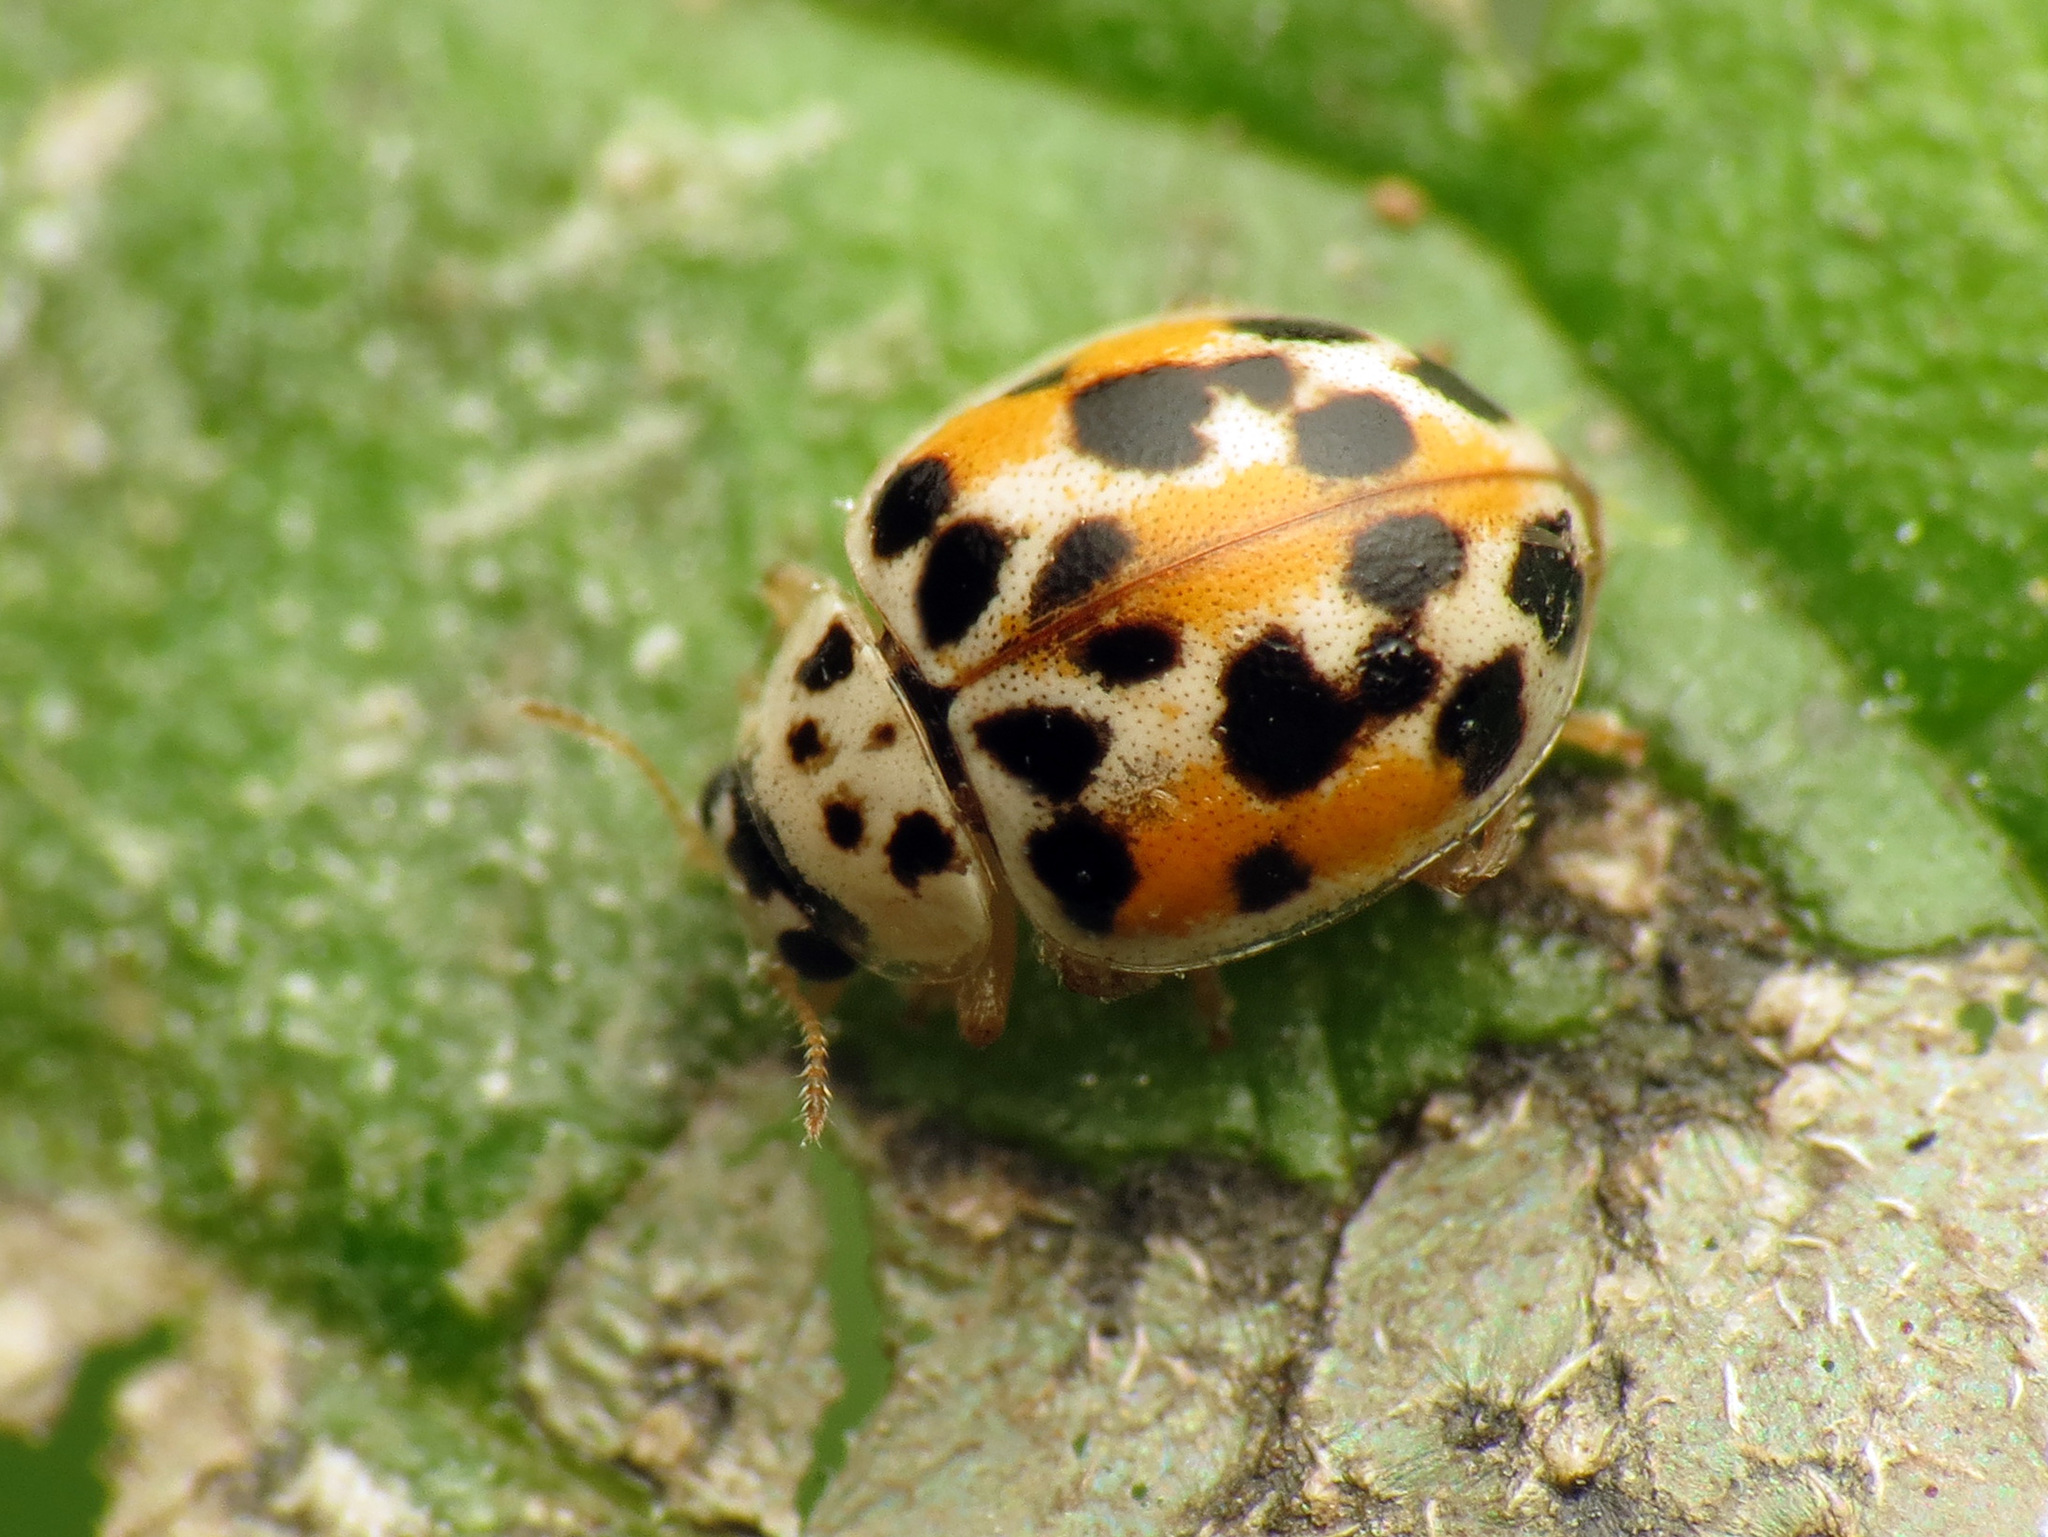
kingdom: Animalia
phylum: Arthropoda
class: Insecta
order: Coleoptera
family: Coccinellidae
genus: Psyllobora
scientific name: Psyllobora vigintimaculata
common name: Ladybird beetle
